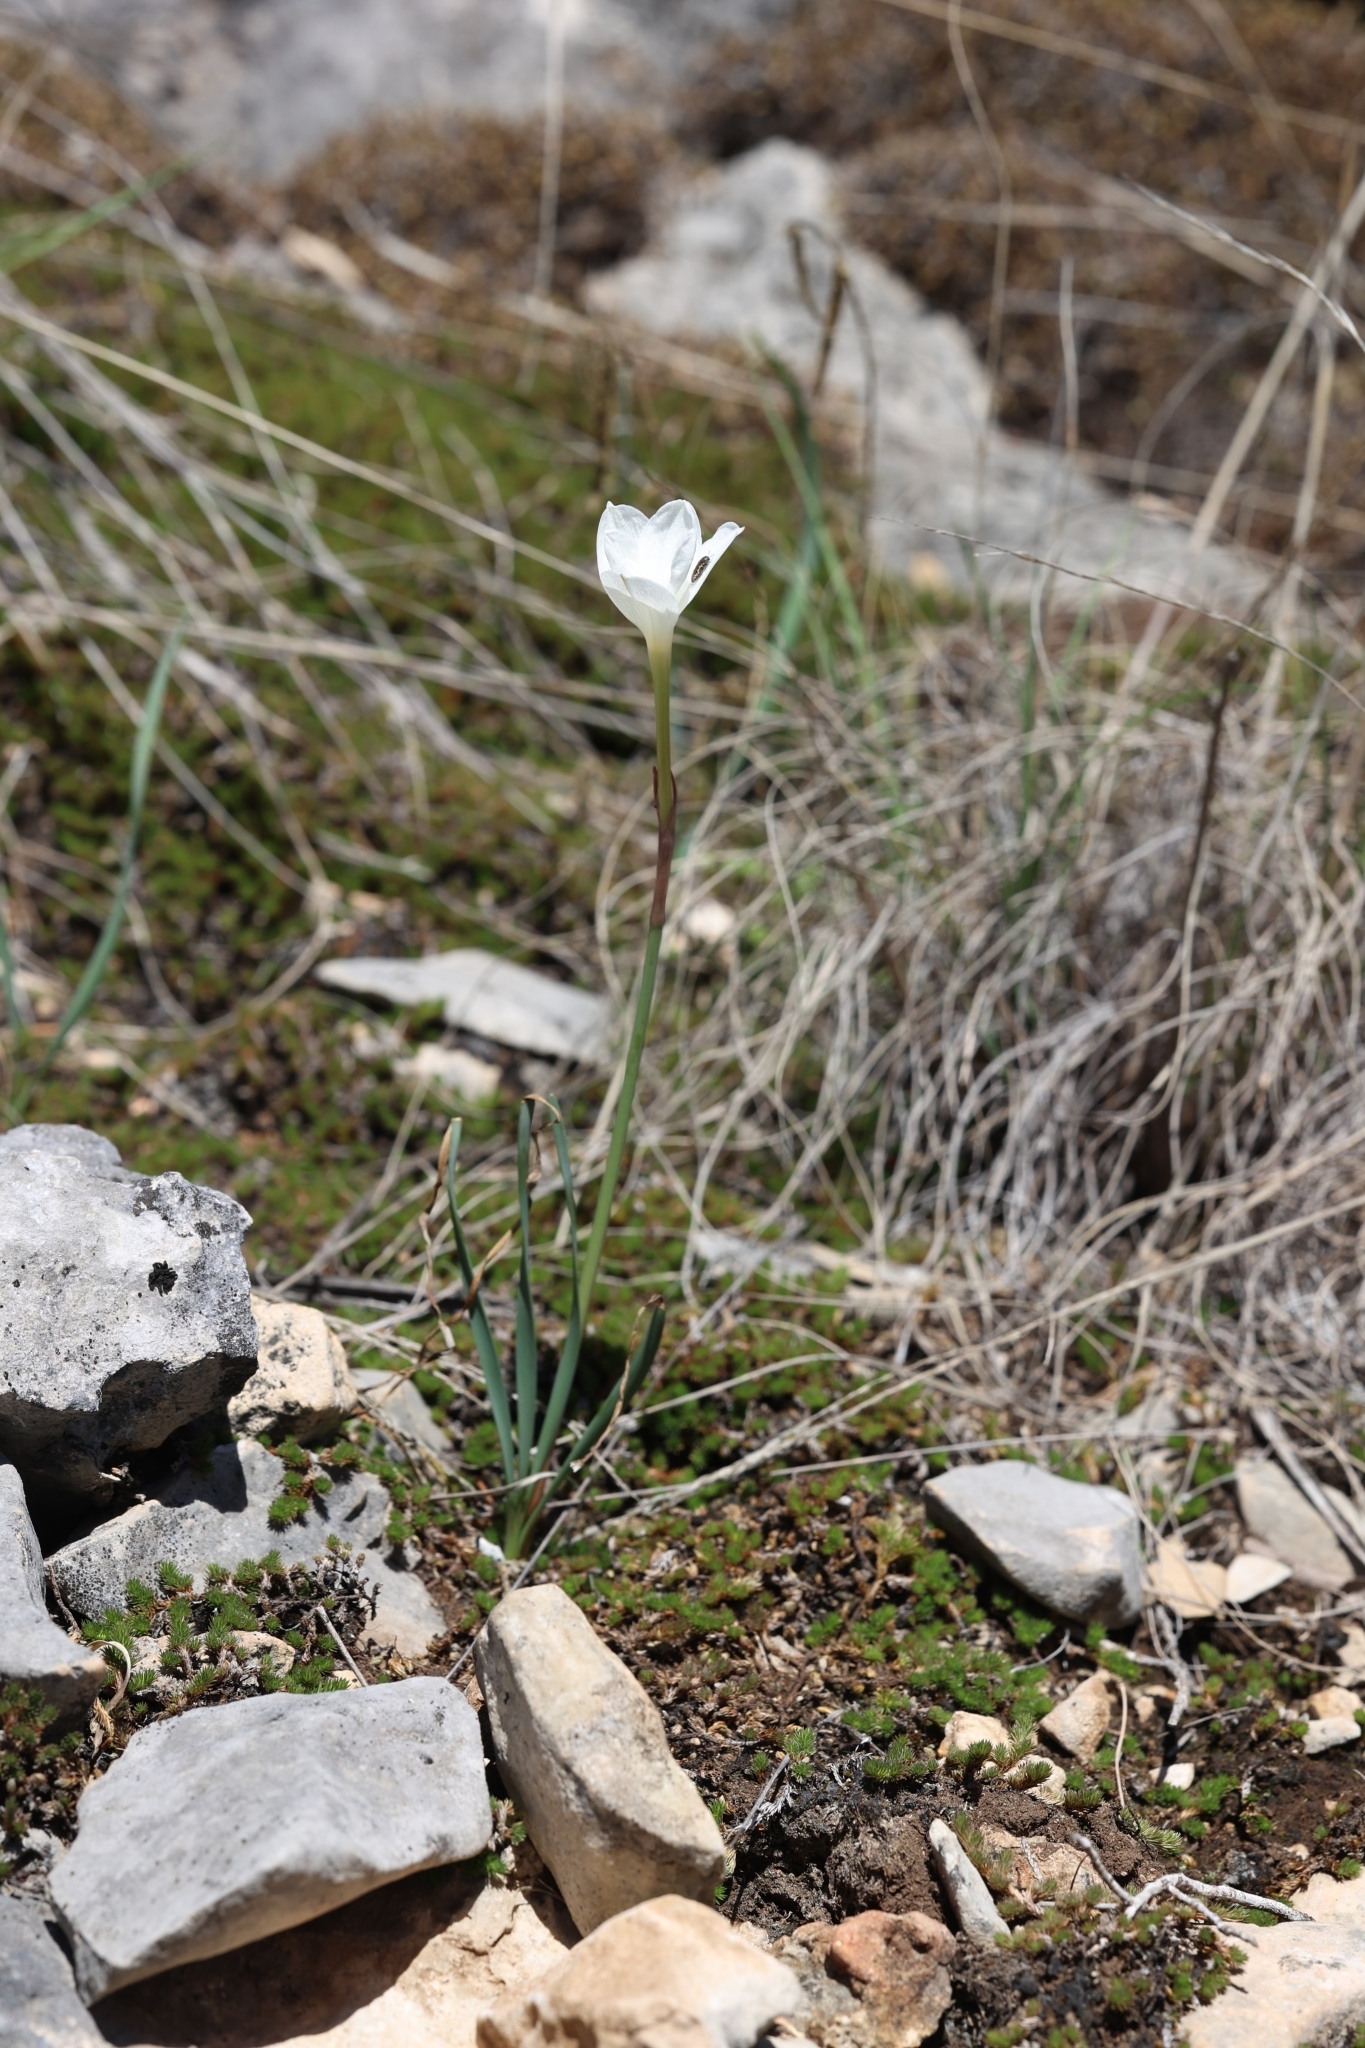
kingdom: Plantae
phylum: Tracheophyta
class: Liliopsida
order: Asparagales
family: Amaryllidaceae
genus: Zephyranthes
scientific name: Zephyranthes drummondii
